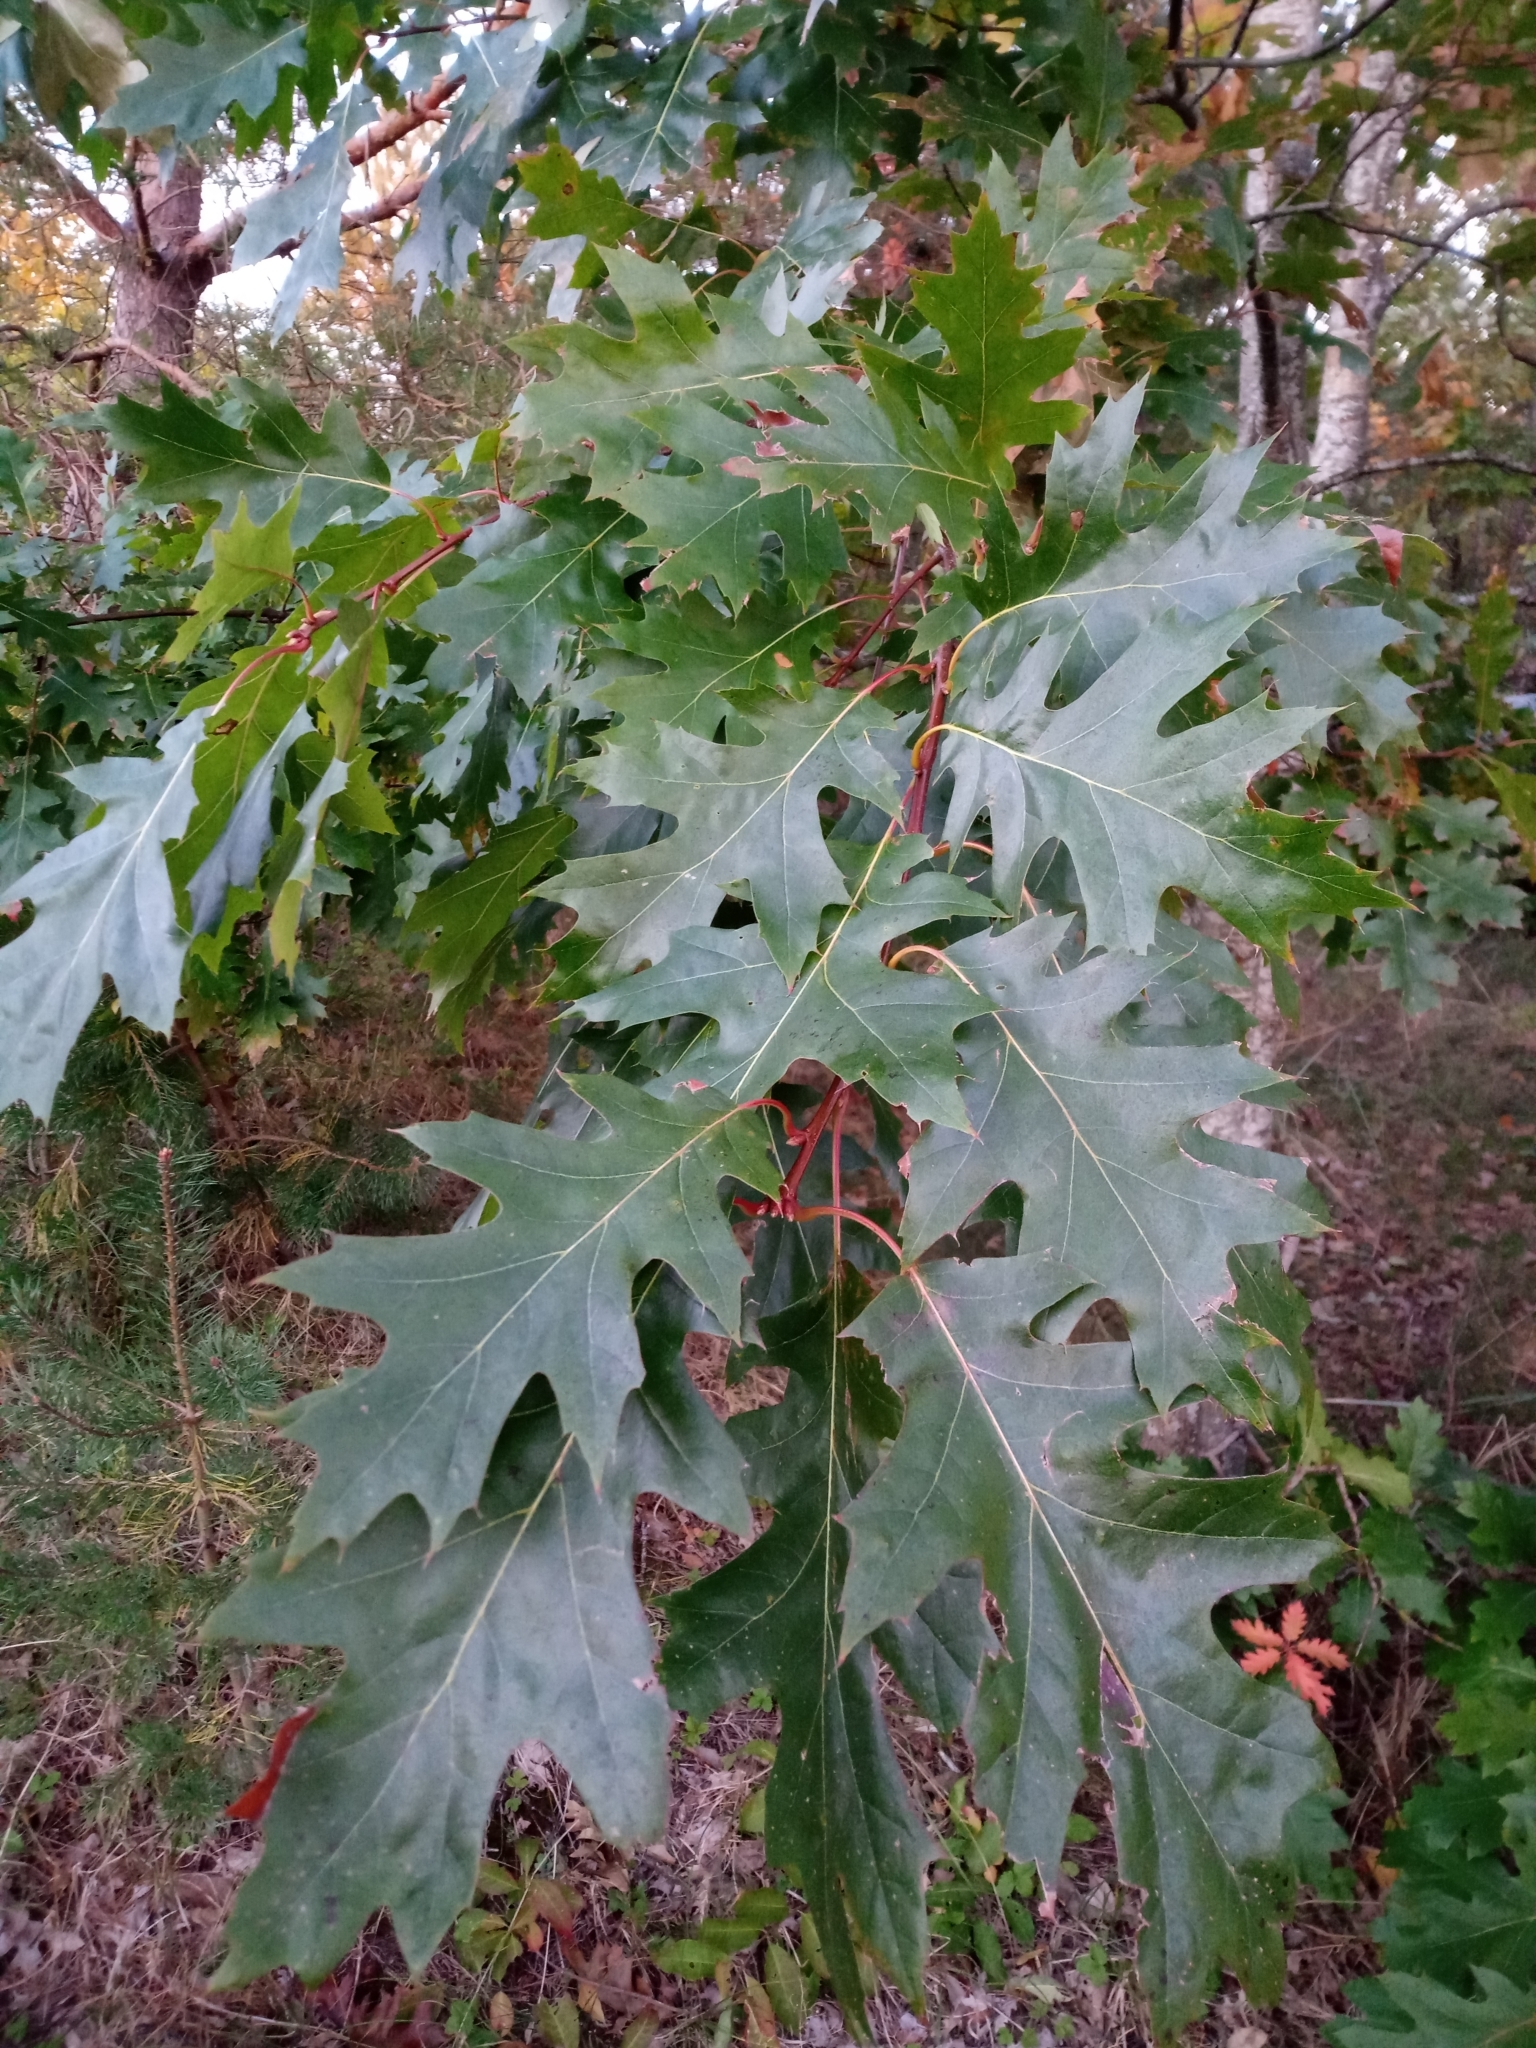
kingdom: Plantae
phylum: Tracheophyta
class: Magnoliopsida
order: Fagales
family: Fagaceae
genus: Quercus
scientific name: Quercus rubra
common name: Red oak
